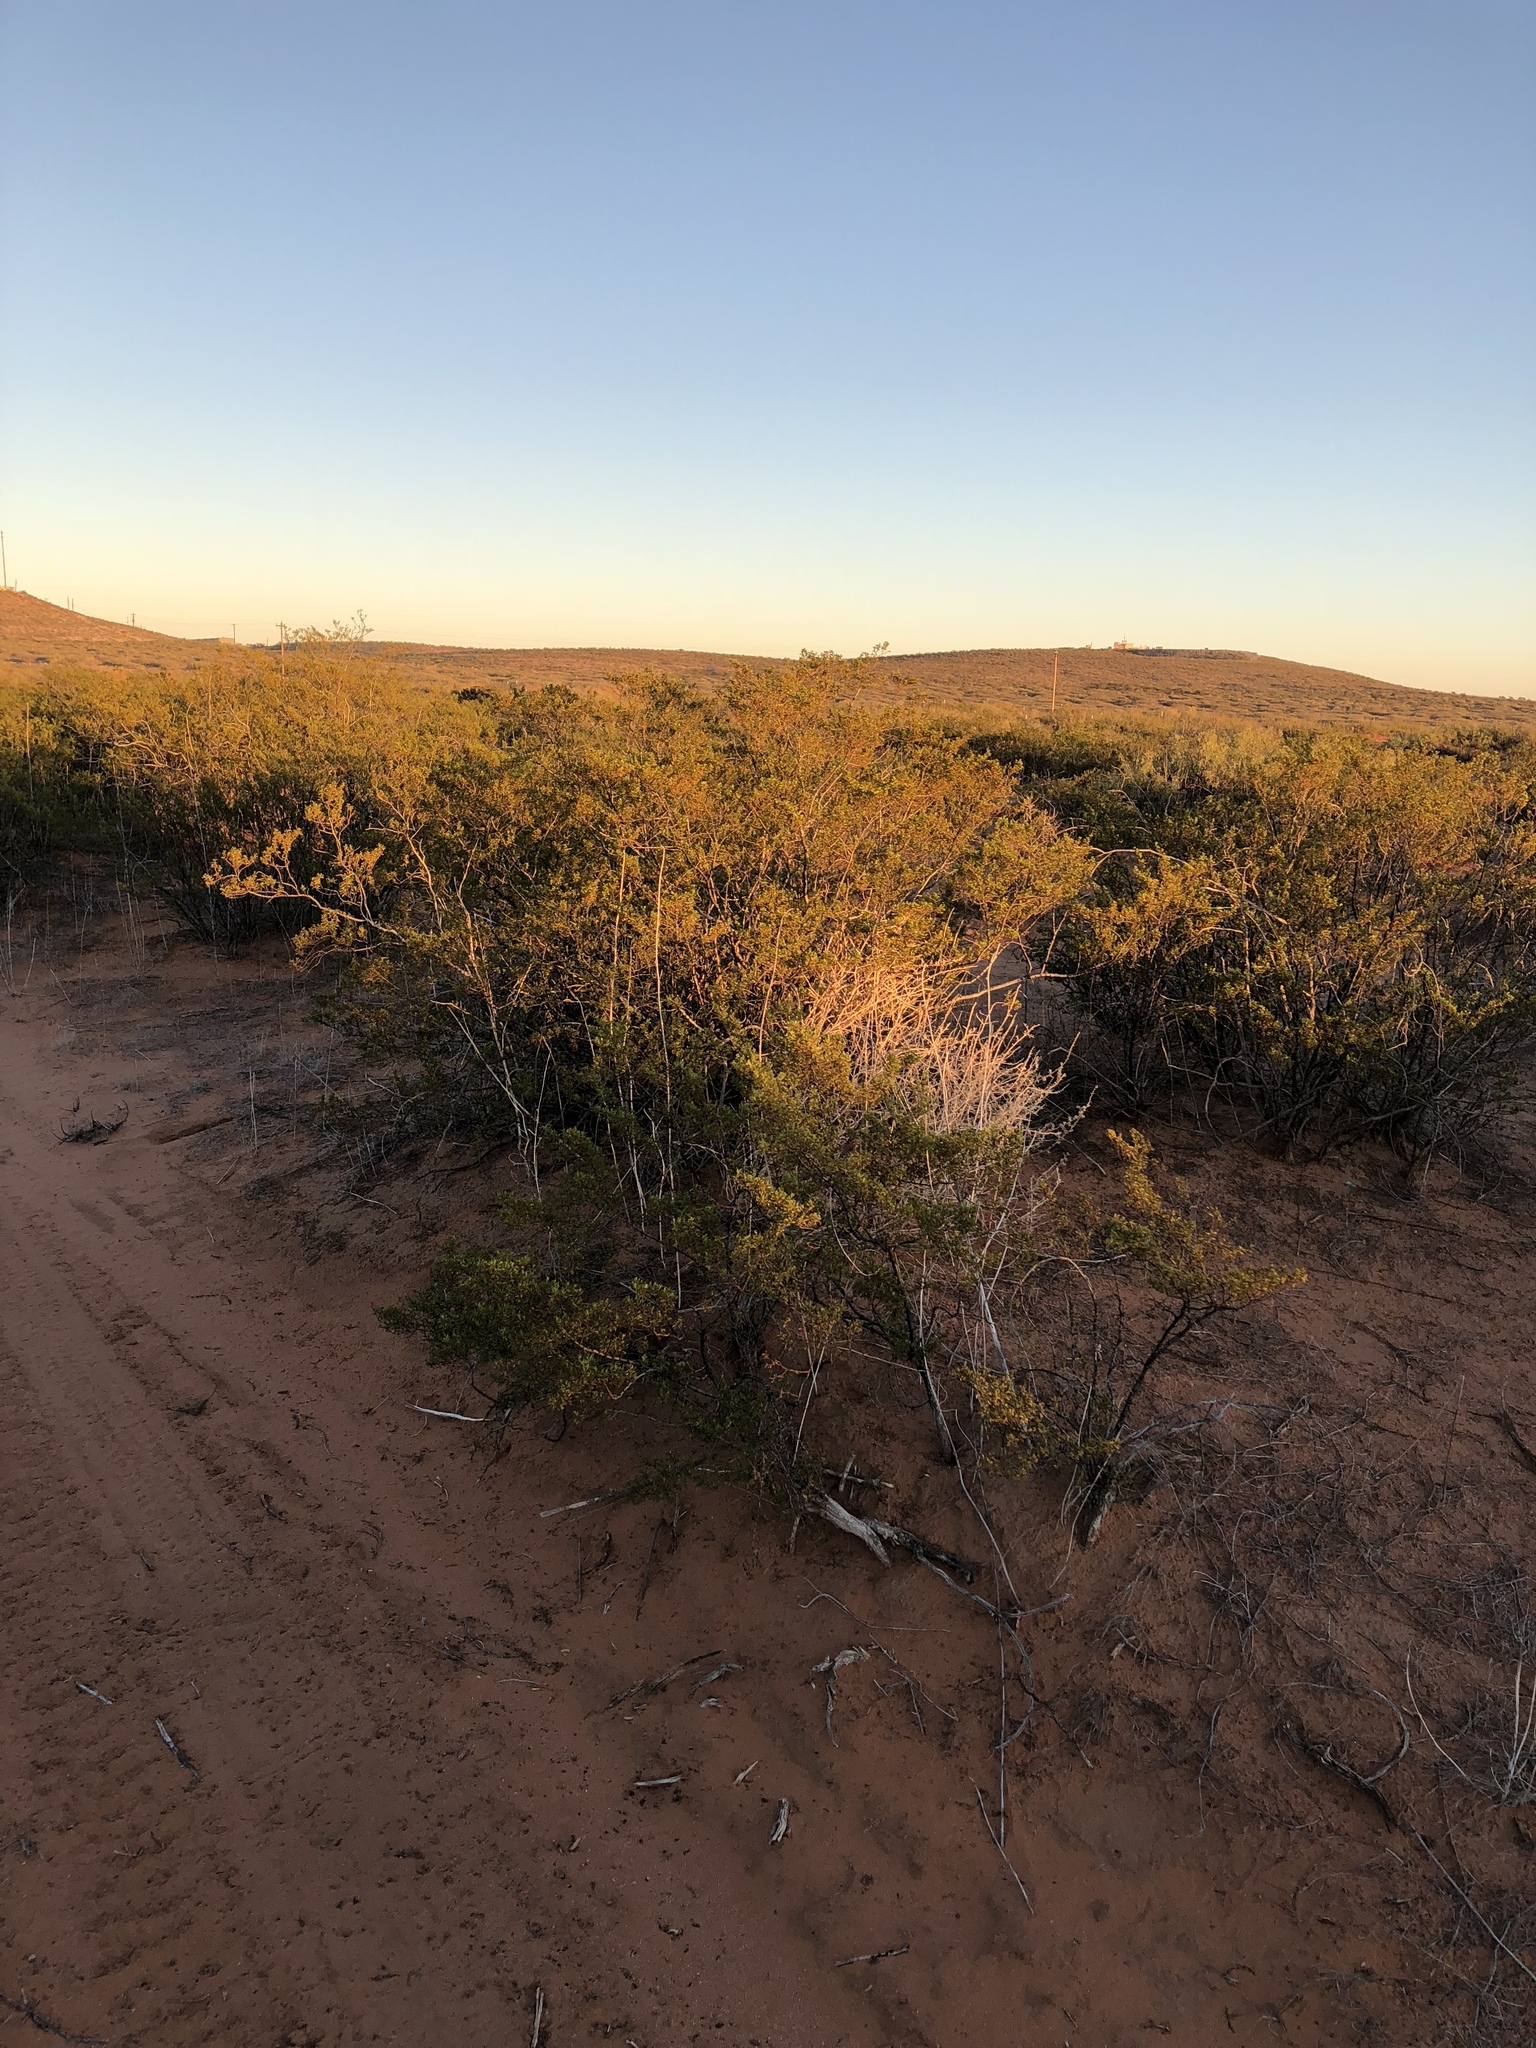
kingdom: Plantae
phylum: Tracheophyta
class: Magnoliopsida
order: Zygophyllales
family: Zygophyllaceae
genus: Larrea
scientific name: Larrea tridentata
